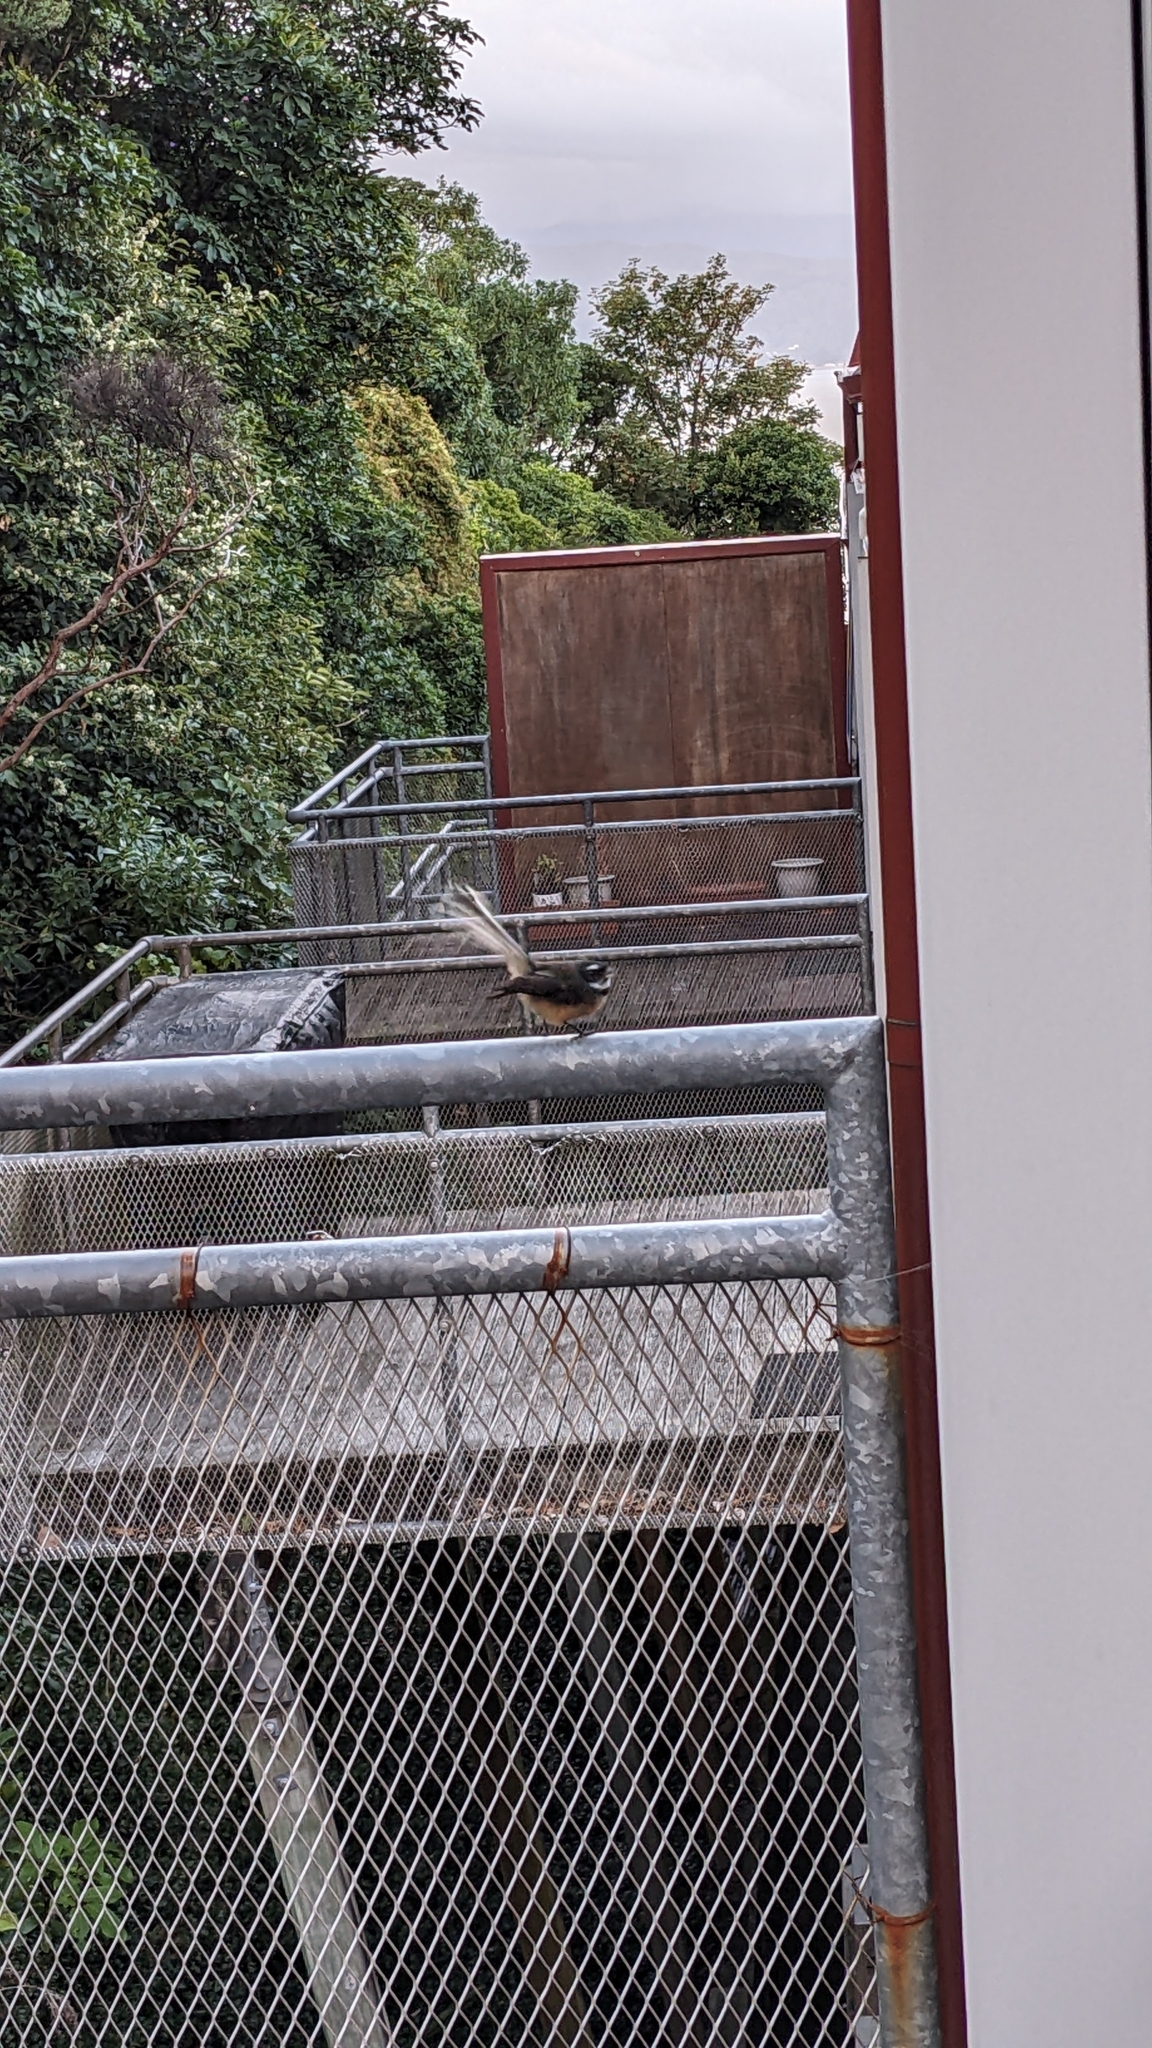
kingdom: Animalia
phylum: Chordata
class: Aves
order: Passeriformes
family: Rhipiduridae
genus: Rhipidura
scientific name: Rhipidura fuliginosa
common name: New zealand fantail
